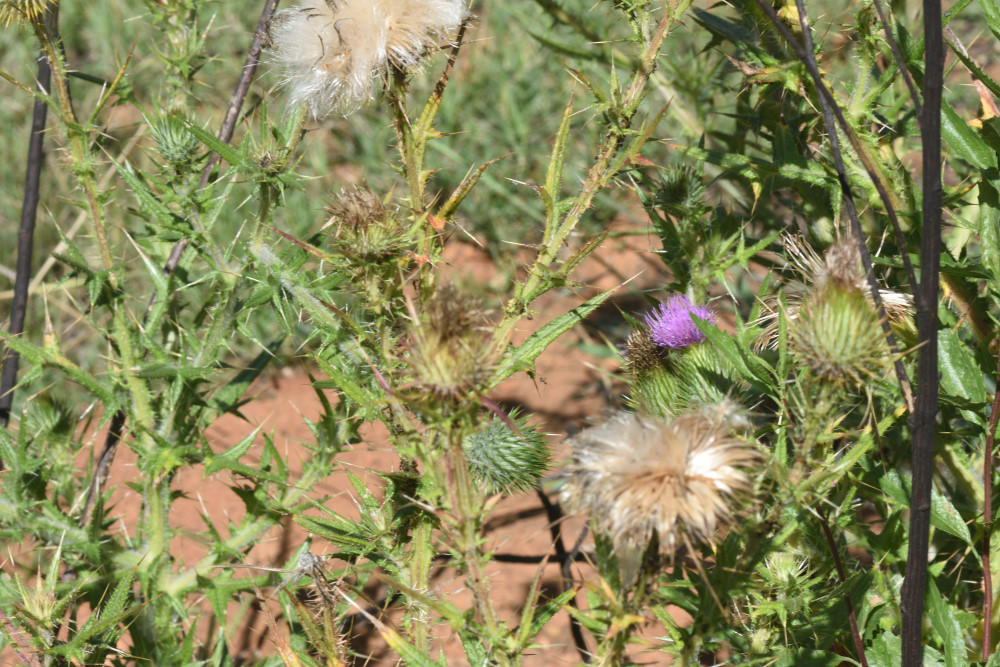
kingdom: Plantae
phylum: Tracheophyta
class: Magnoliopsida
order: Asterales
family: Asteraceae
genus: Cirsium
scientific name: Cirsium vulgare
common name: Bull thistle
